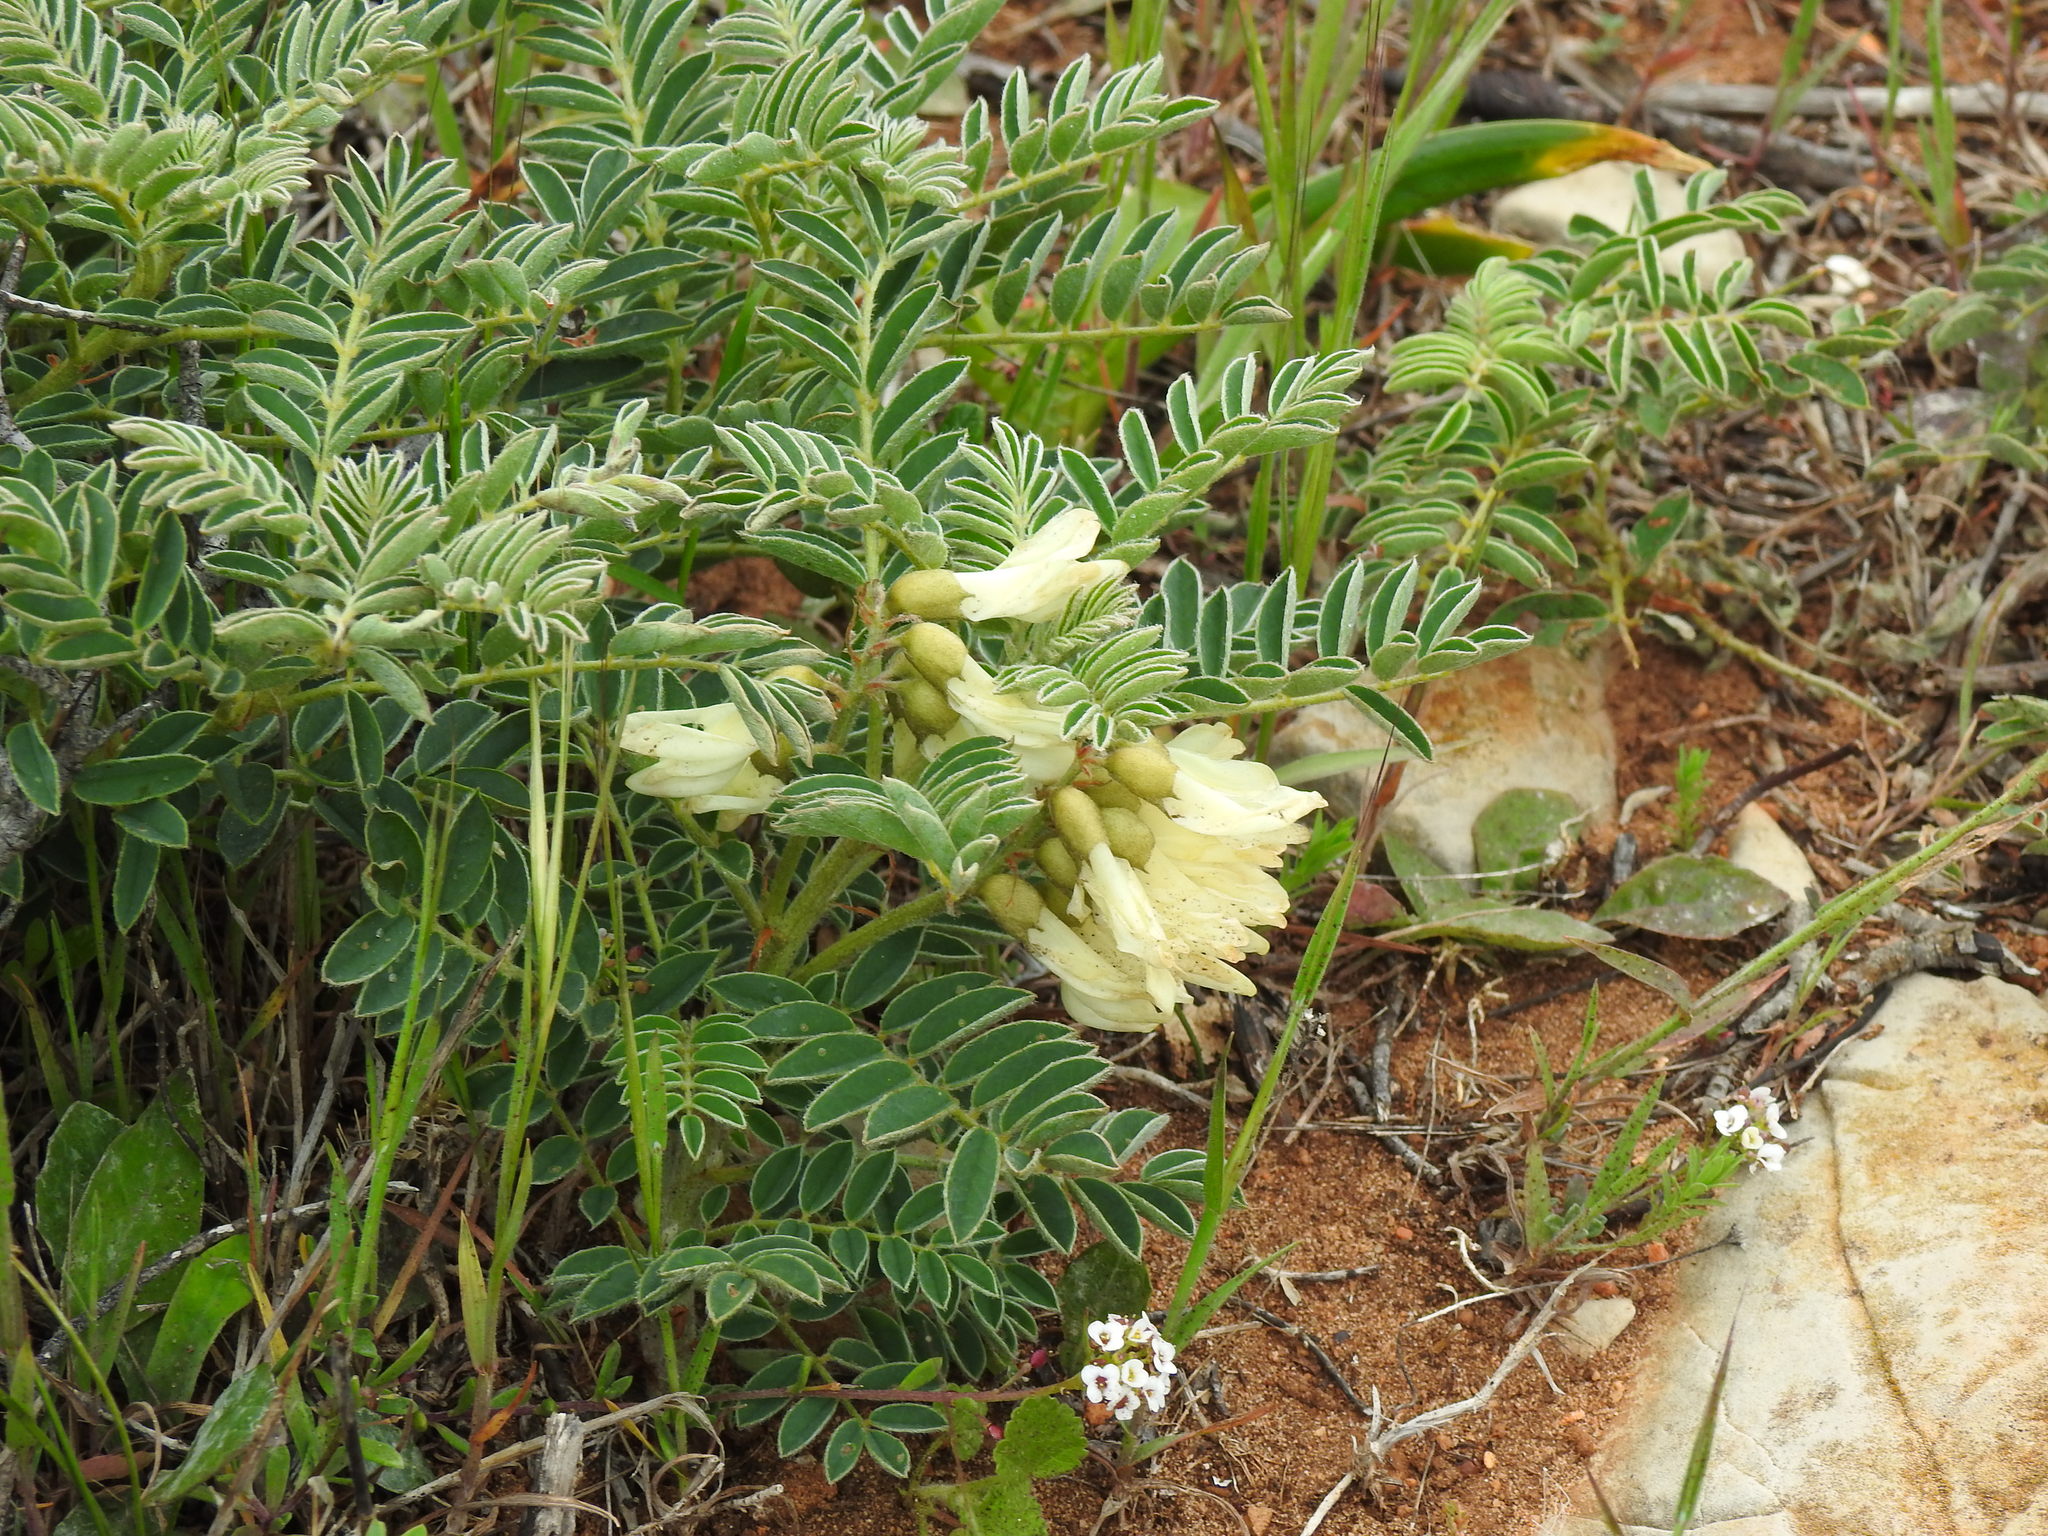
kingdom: Plantae
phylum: Tracheophyta
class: Magnoliopsida
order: Fabales
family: Fabaceae
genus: Erophaca
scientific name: Erophaca baetica
